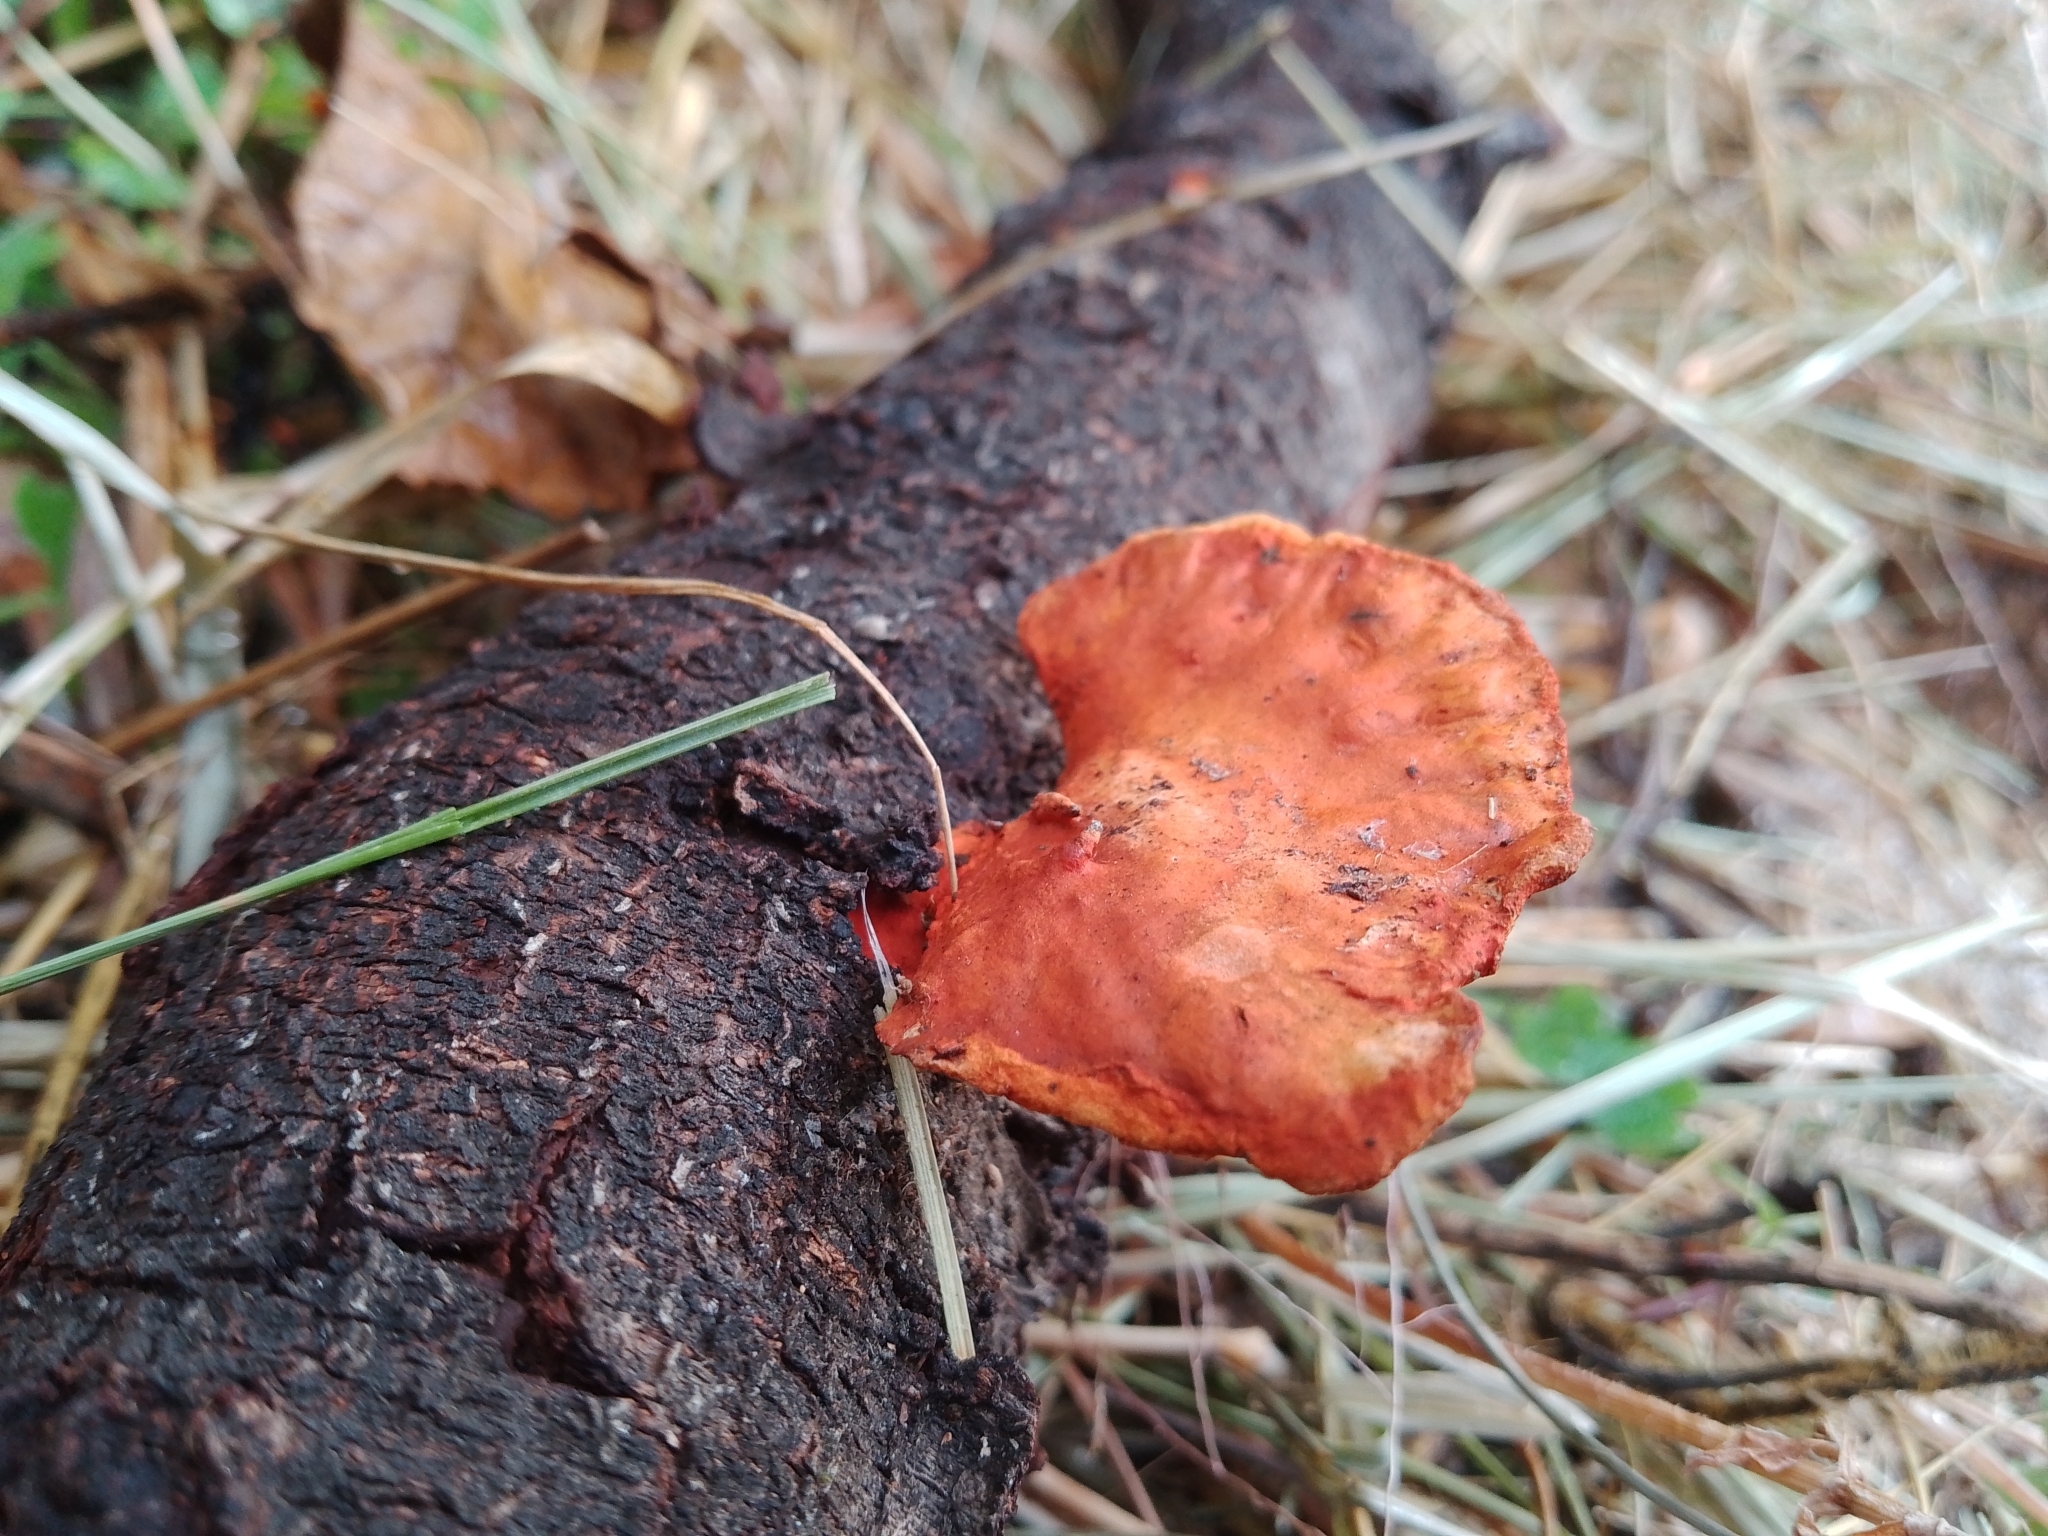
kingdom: Fungi
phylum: Basidiomycota
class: Agaricomycetes
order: Polyporales
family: Polyporaceae
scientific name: Polyporaceae
